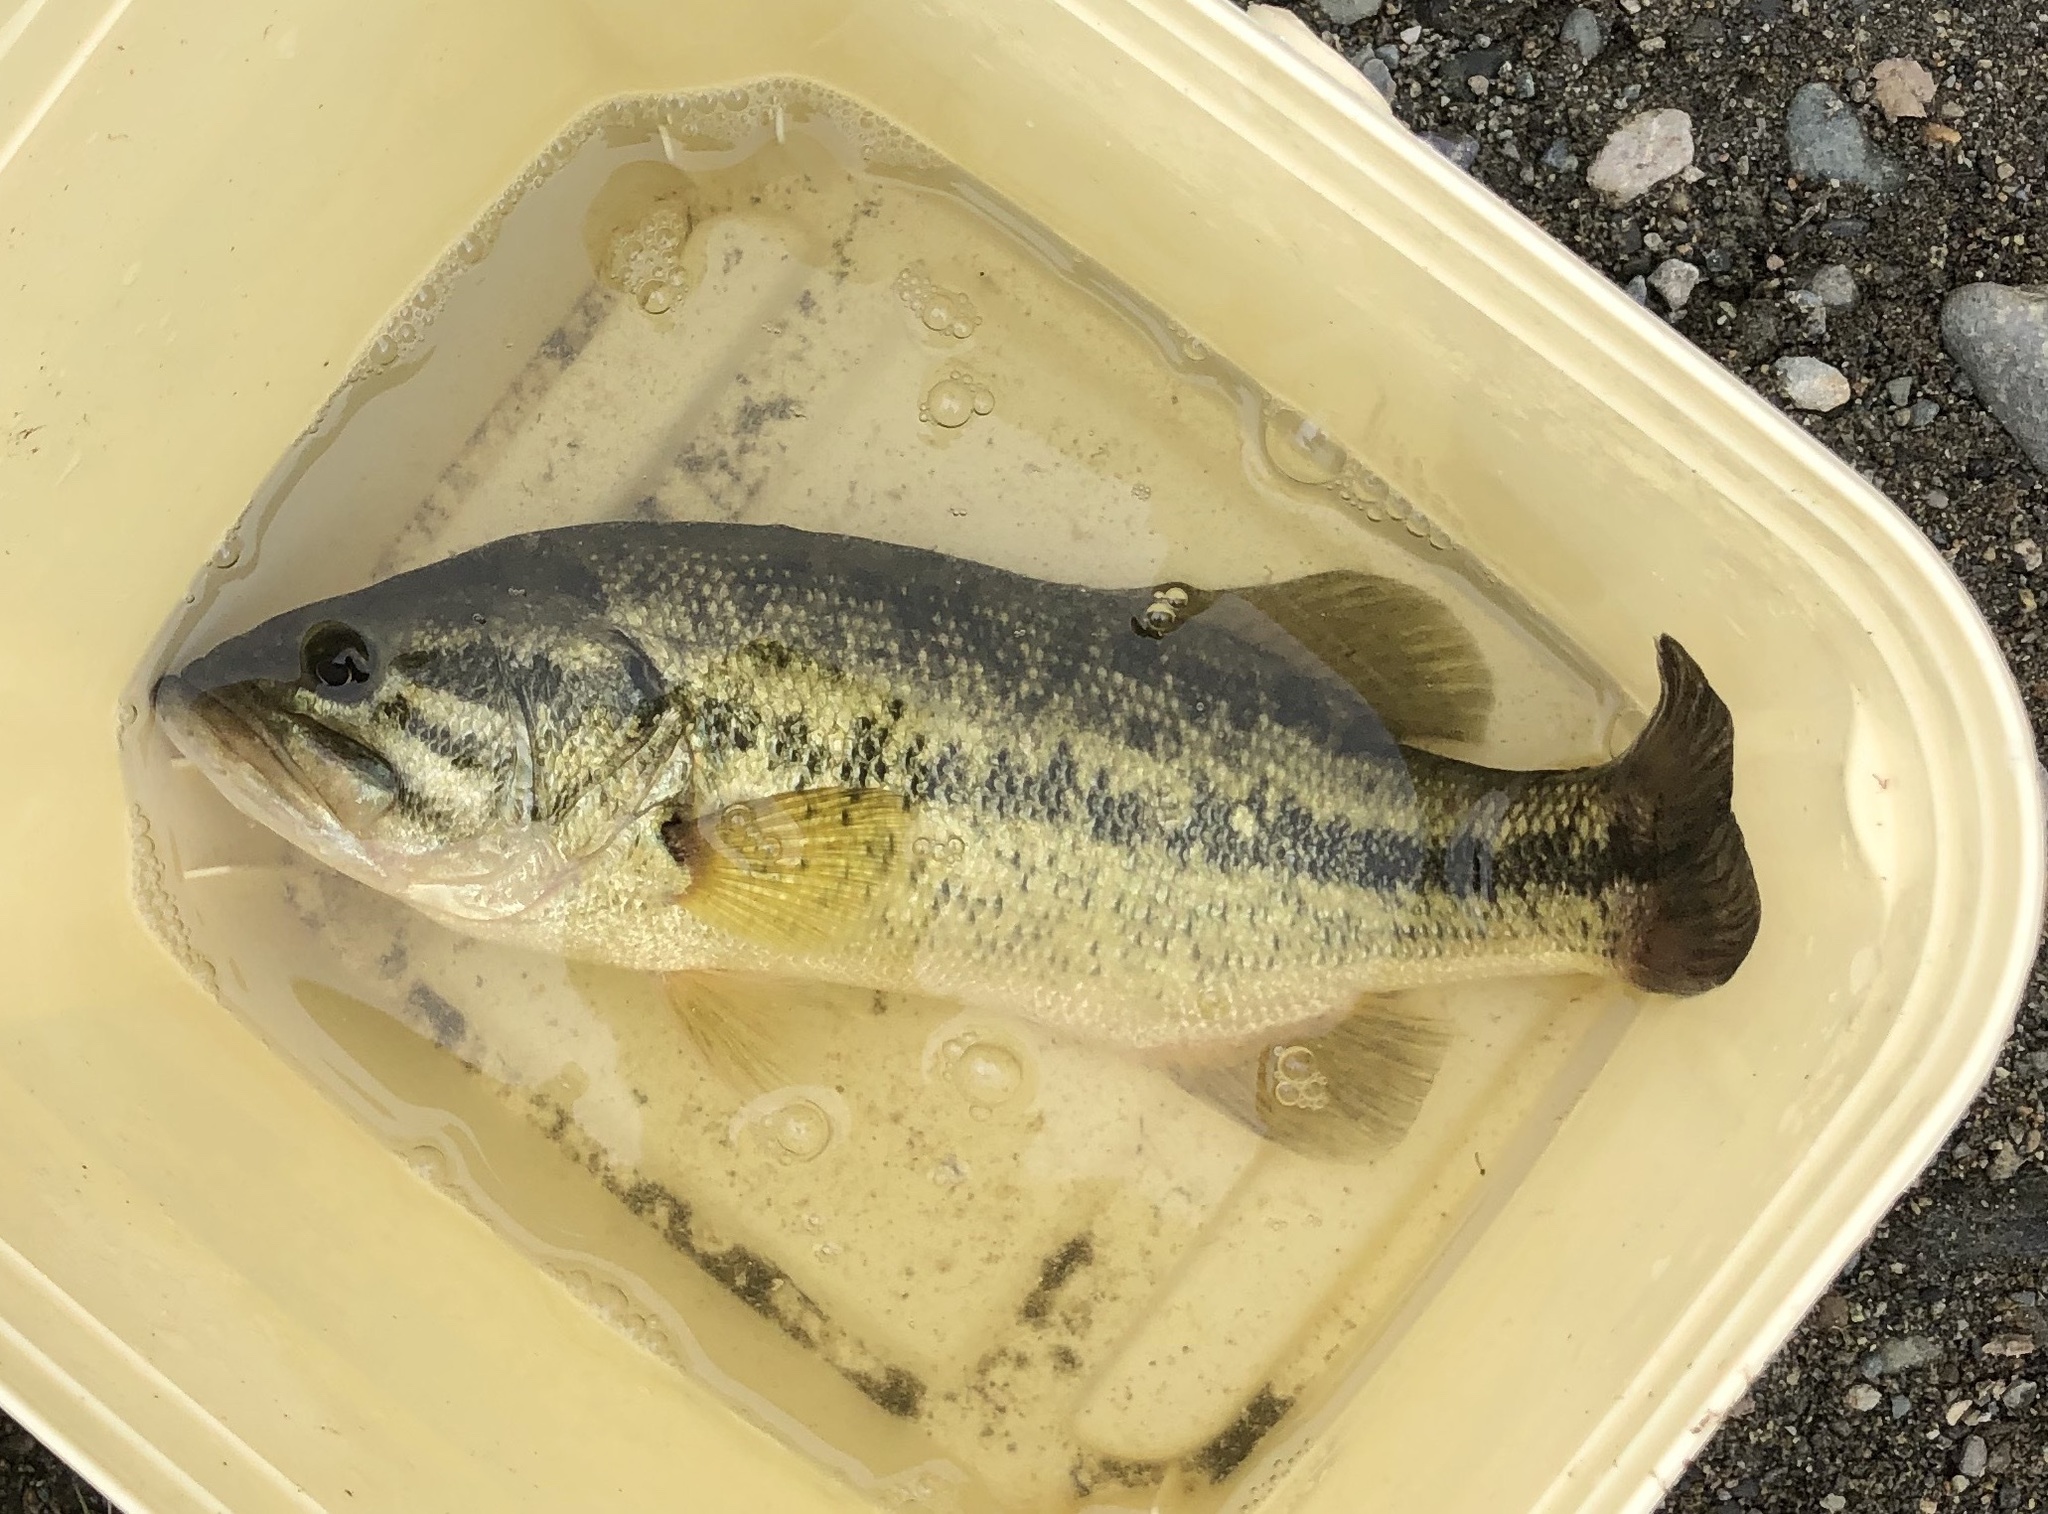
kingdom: Animalia
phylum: Chordata
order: Perciformes
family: Centrarchidae
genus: Micropterus
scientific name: Micropterus
